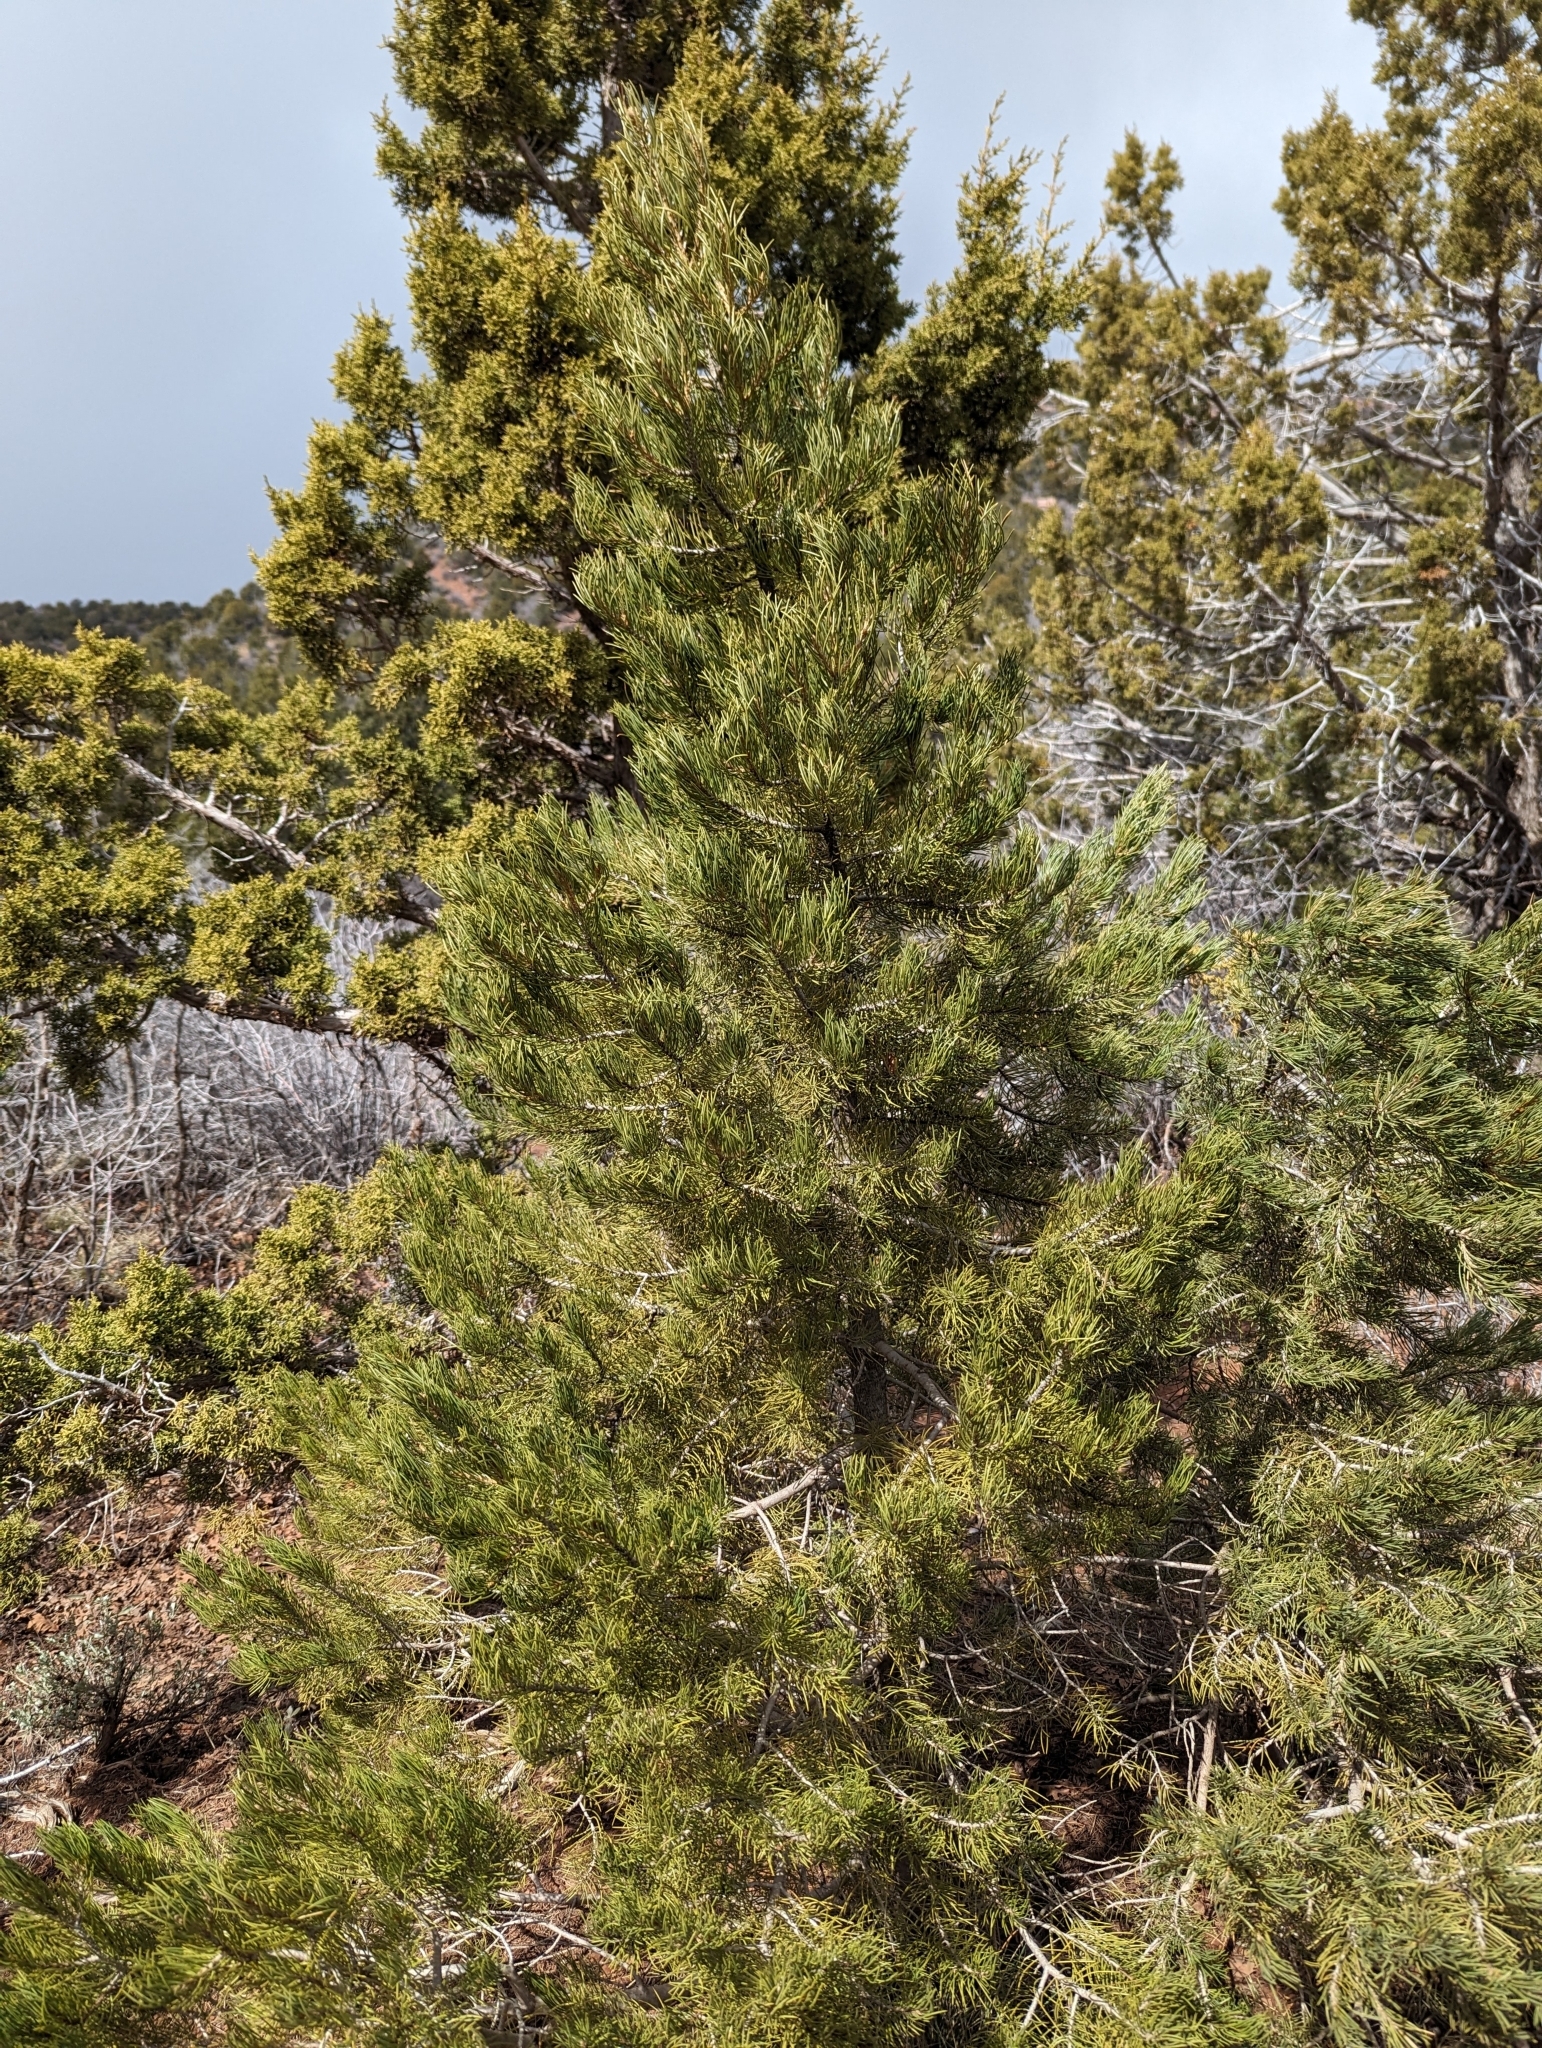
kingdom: Plantae
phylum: Tracheophyta
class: Pinopsida
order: Pinales
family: Pinaceae
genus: Pinus
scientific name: Pinus edulis
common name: Colorado pinyon
